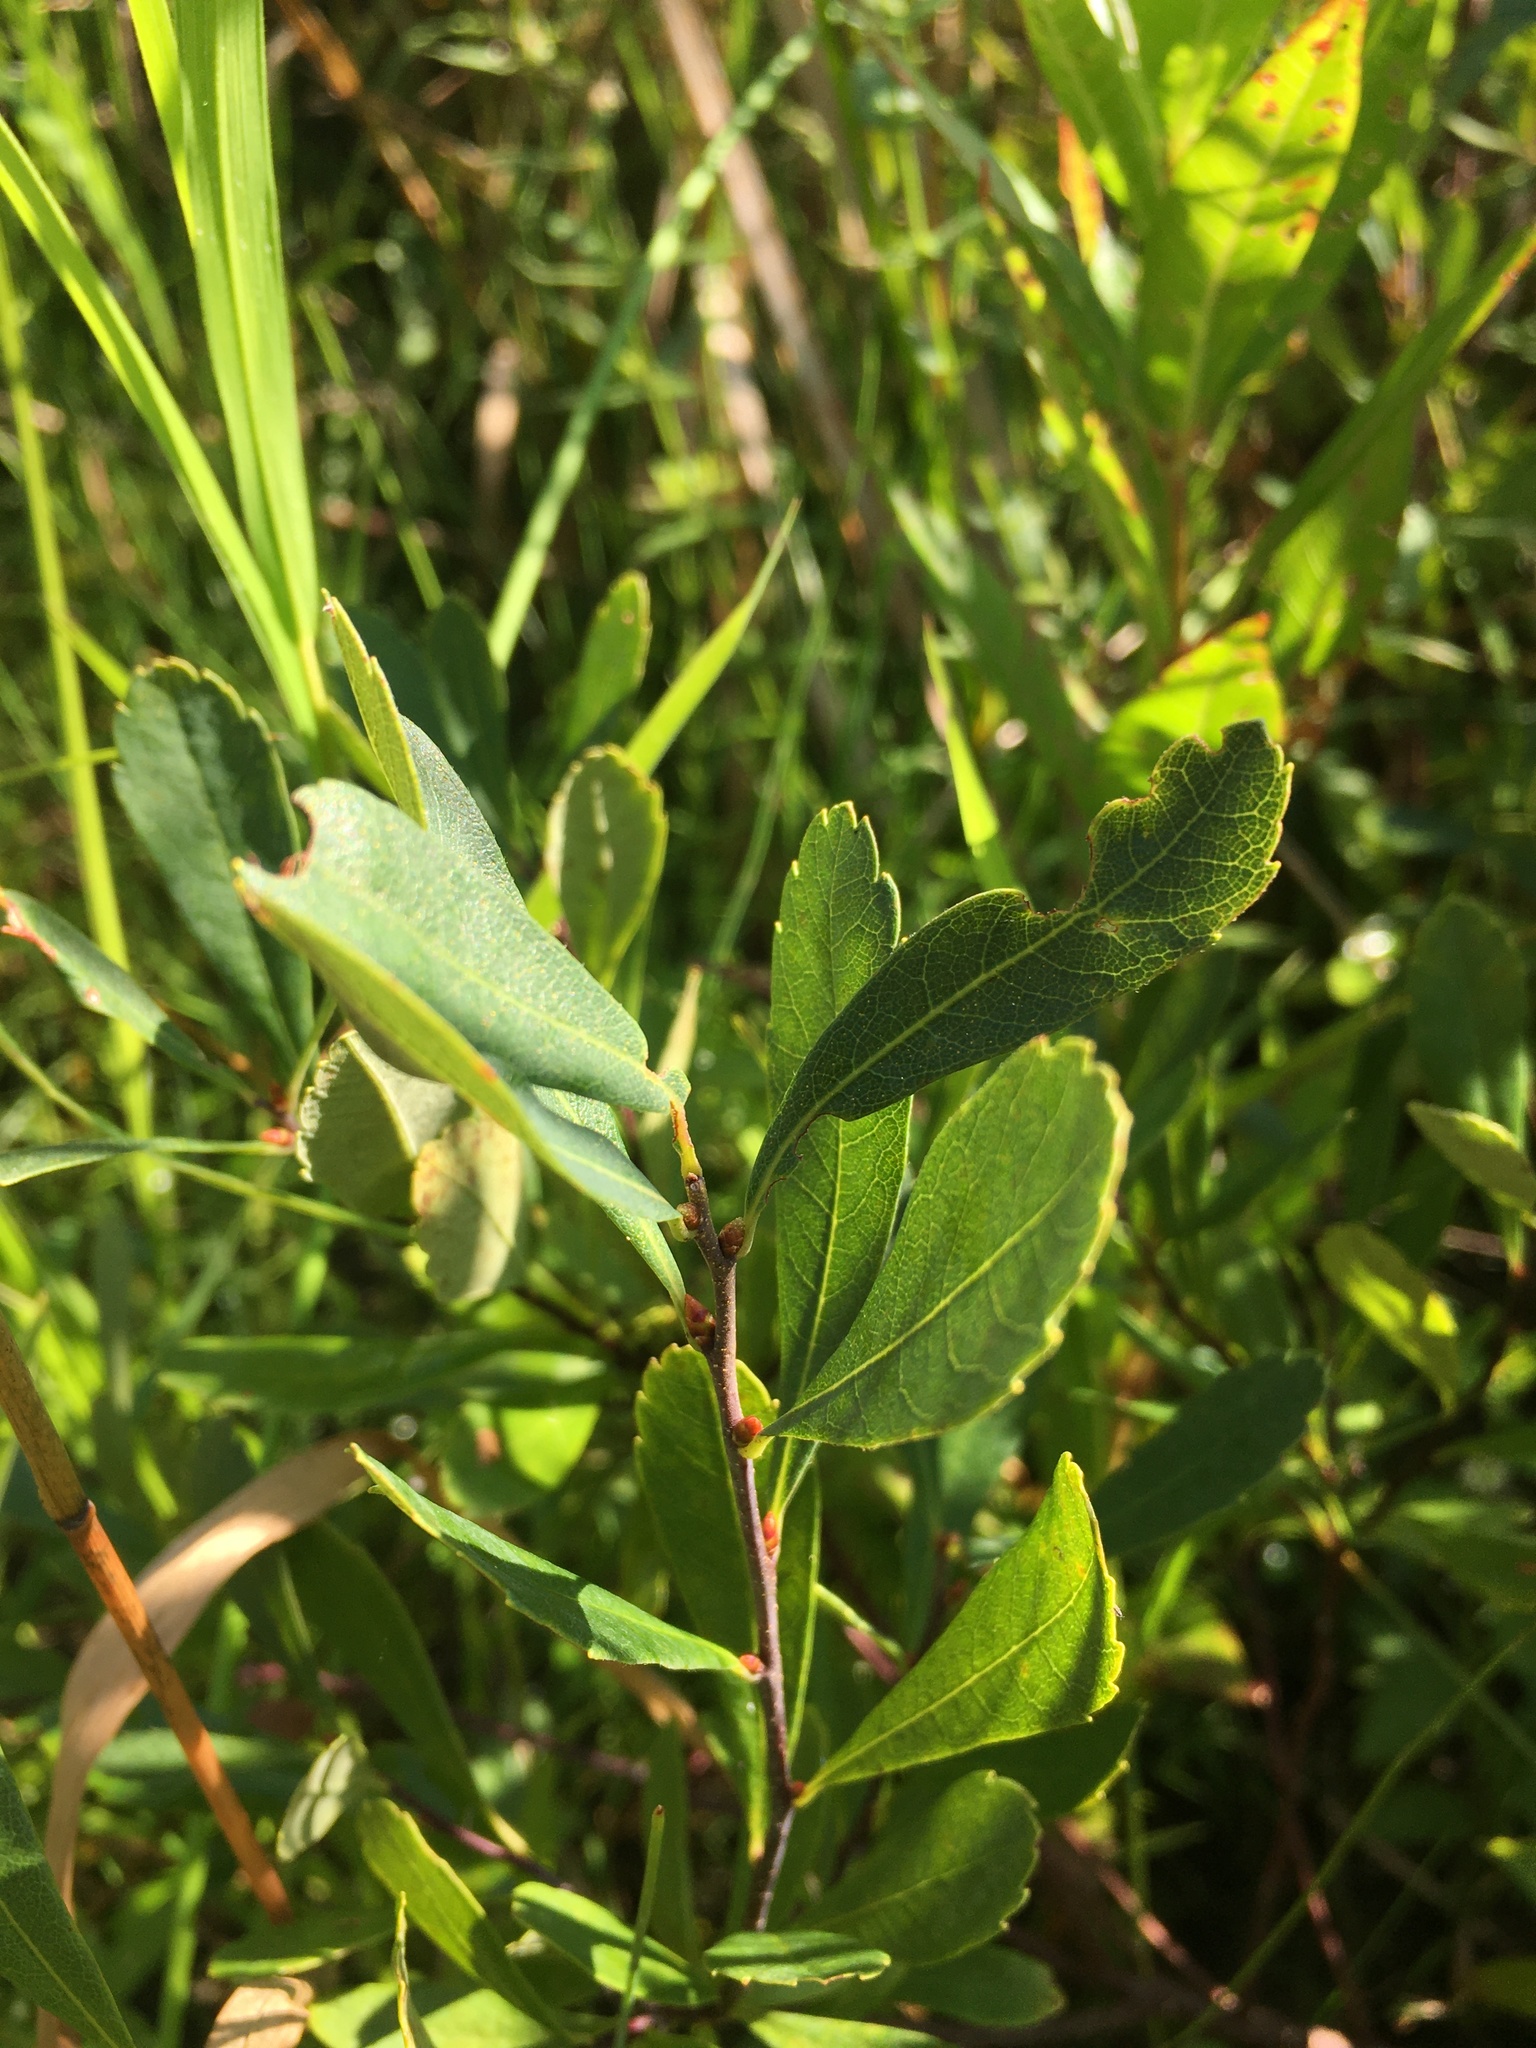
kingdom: Plantae
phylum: Tracheophyta
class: Magnoliopsida
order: Fagales
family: Myricaceae
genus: Myrica
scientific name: Myrica gale
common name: Sweet gale
